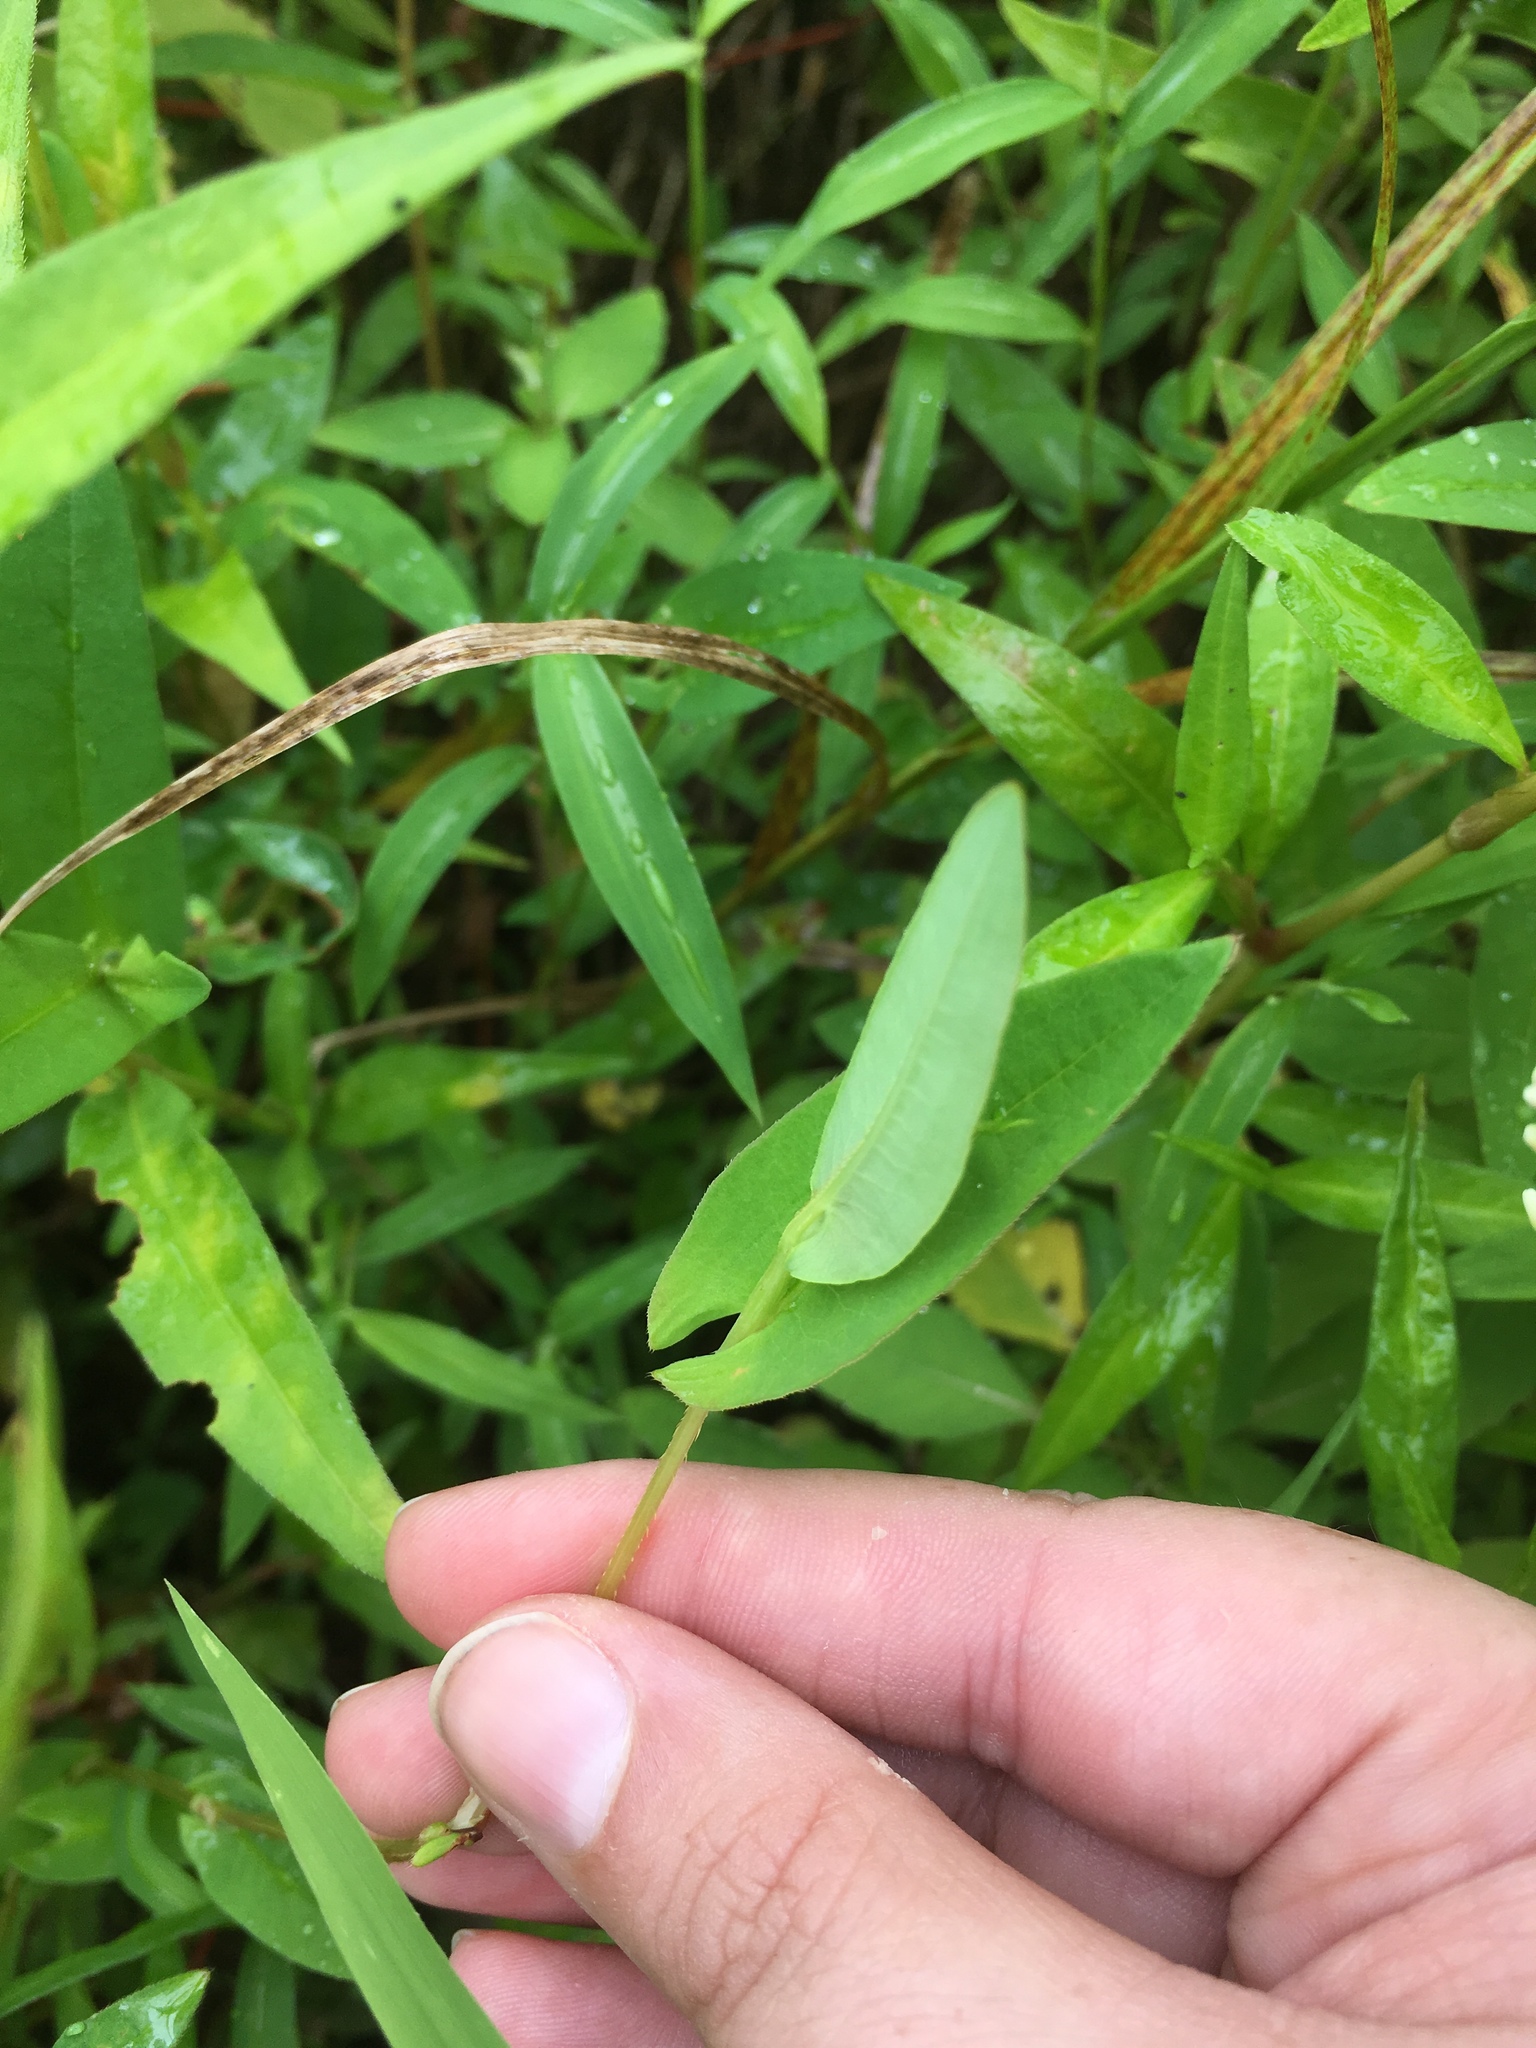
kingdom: Plantae
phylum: Tracheophyta
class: Magnoliopsida
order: Caryophyllales
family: Polygonaceae
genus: Persicaria
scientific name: Persicaria sagittata
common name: American tearthumb
